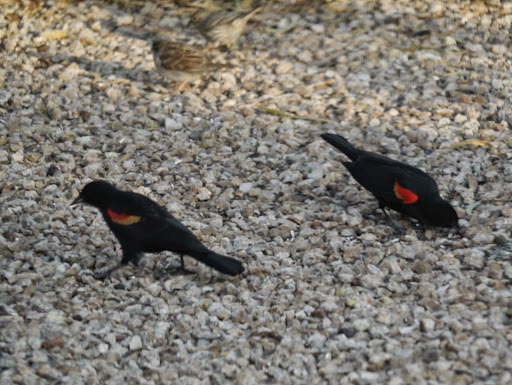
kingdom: Animalia
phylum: Chordata
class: Aves
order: Passeriformes
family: Icteridae
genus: Agelaius
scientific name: Agelaius phoeniceus
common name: Red-winged blackbird
